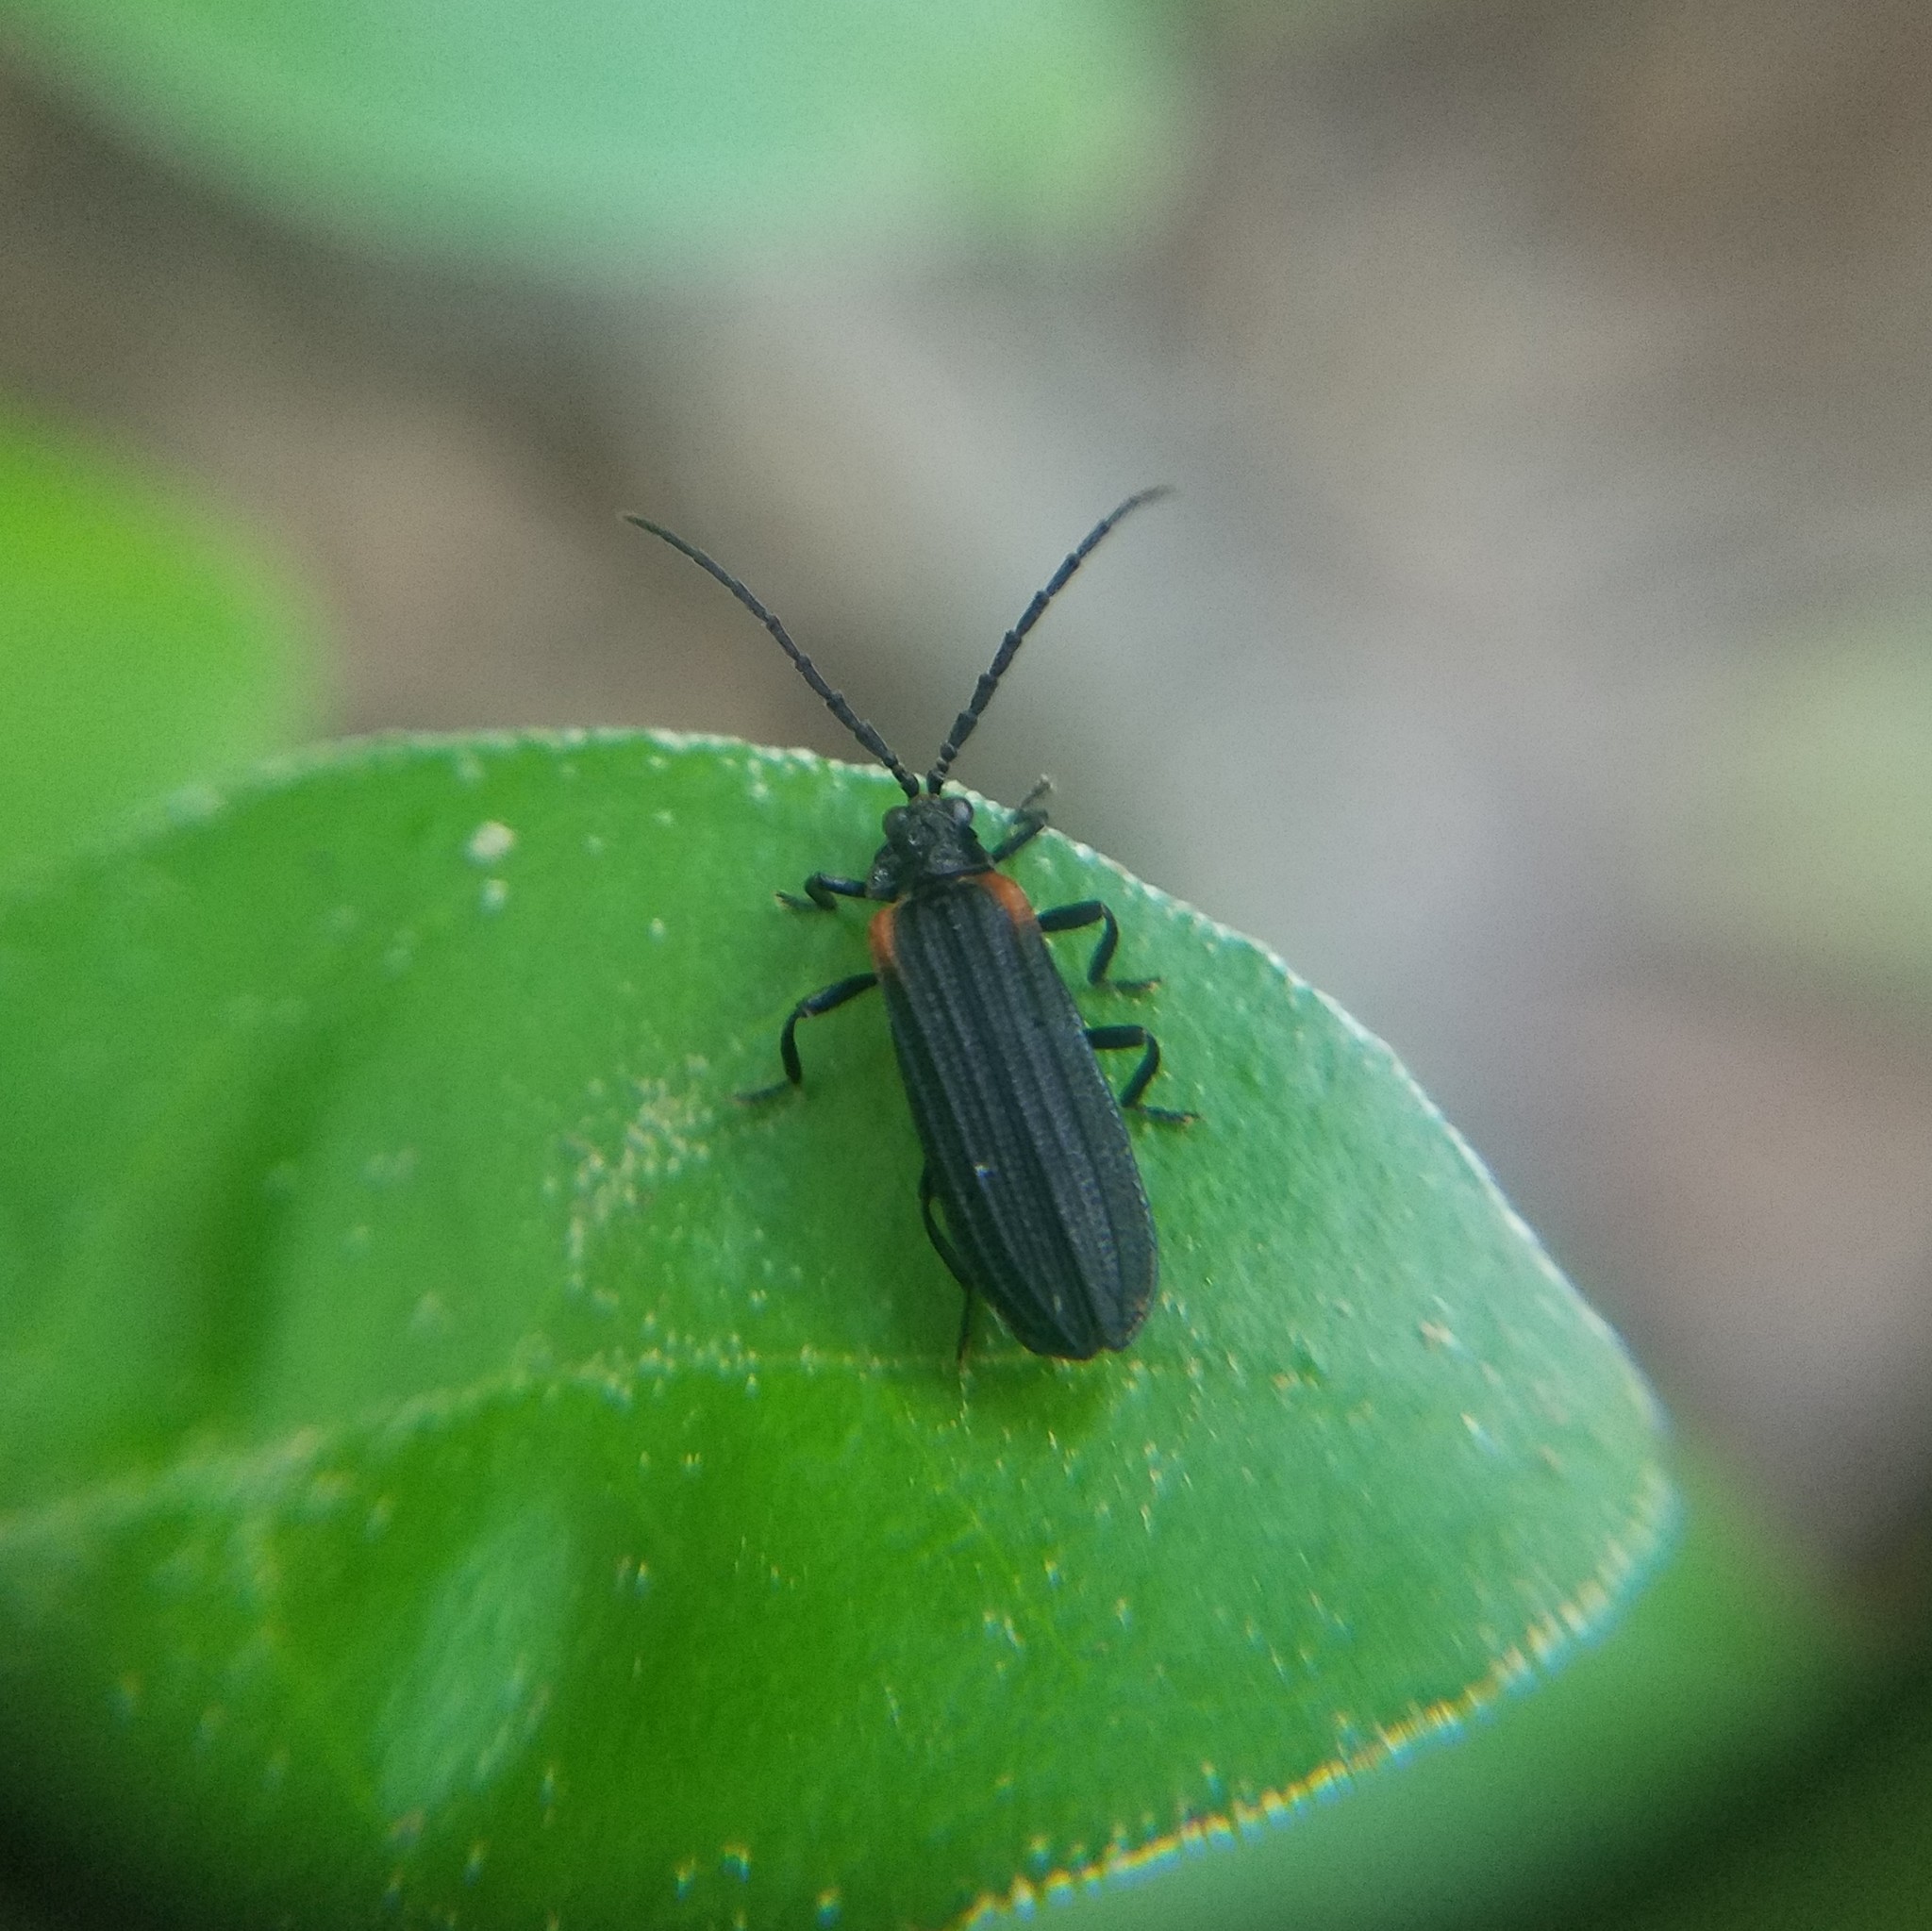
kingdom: Animalia
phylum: Arthropoda
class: Insecta
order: Coleoptera
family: Lycidae
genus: Greenarus
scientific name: Greenarus thoracicus
